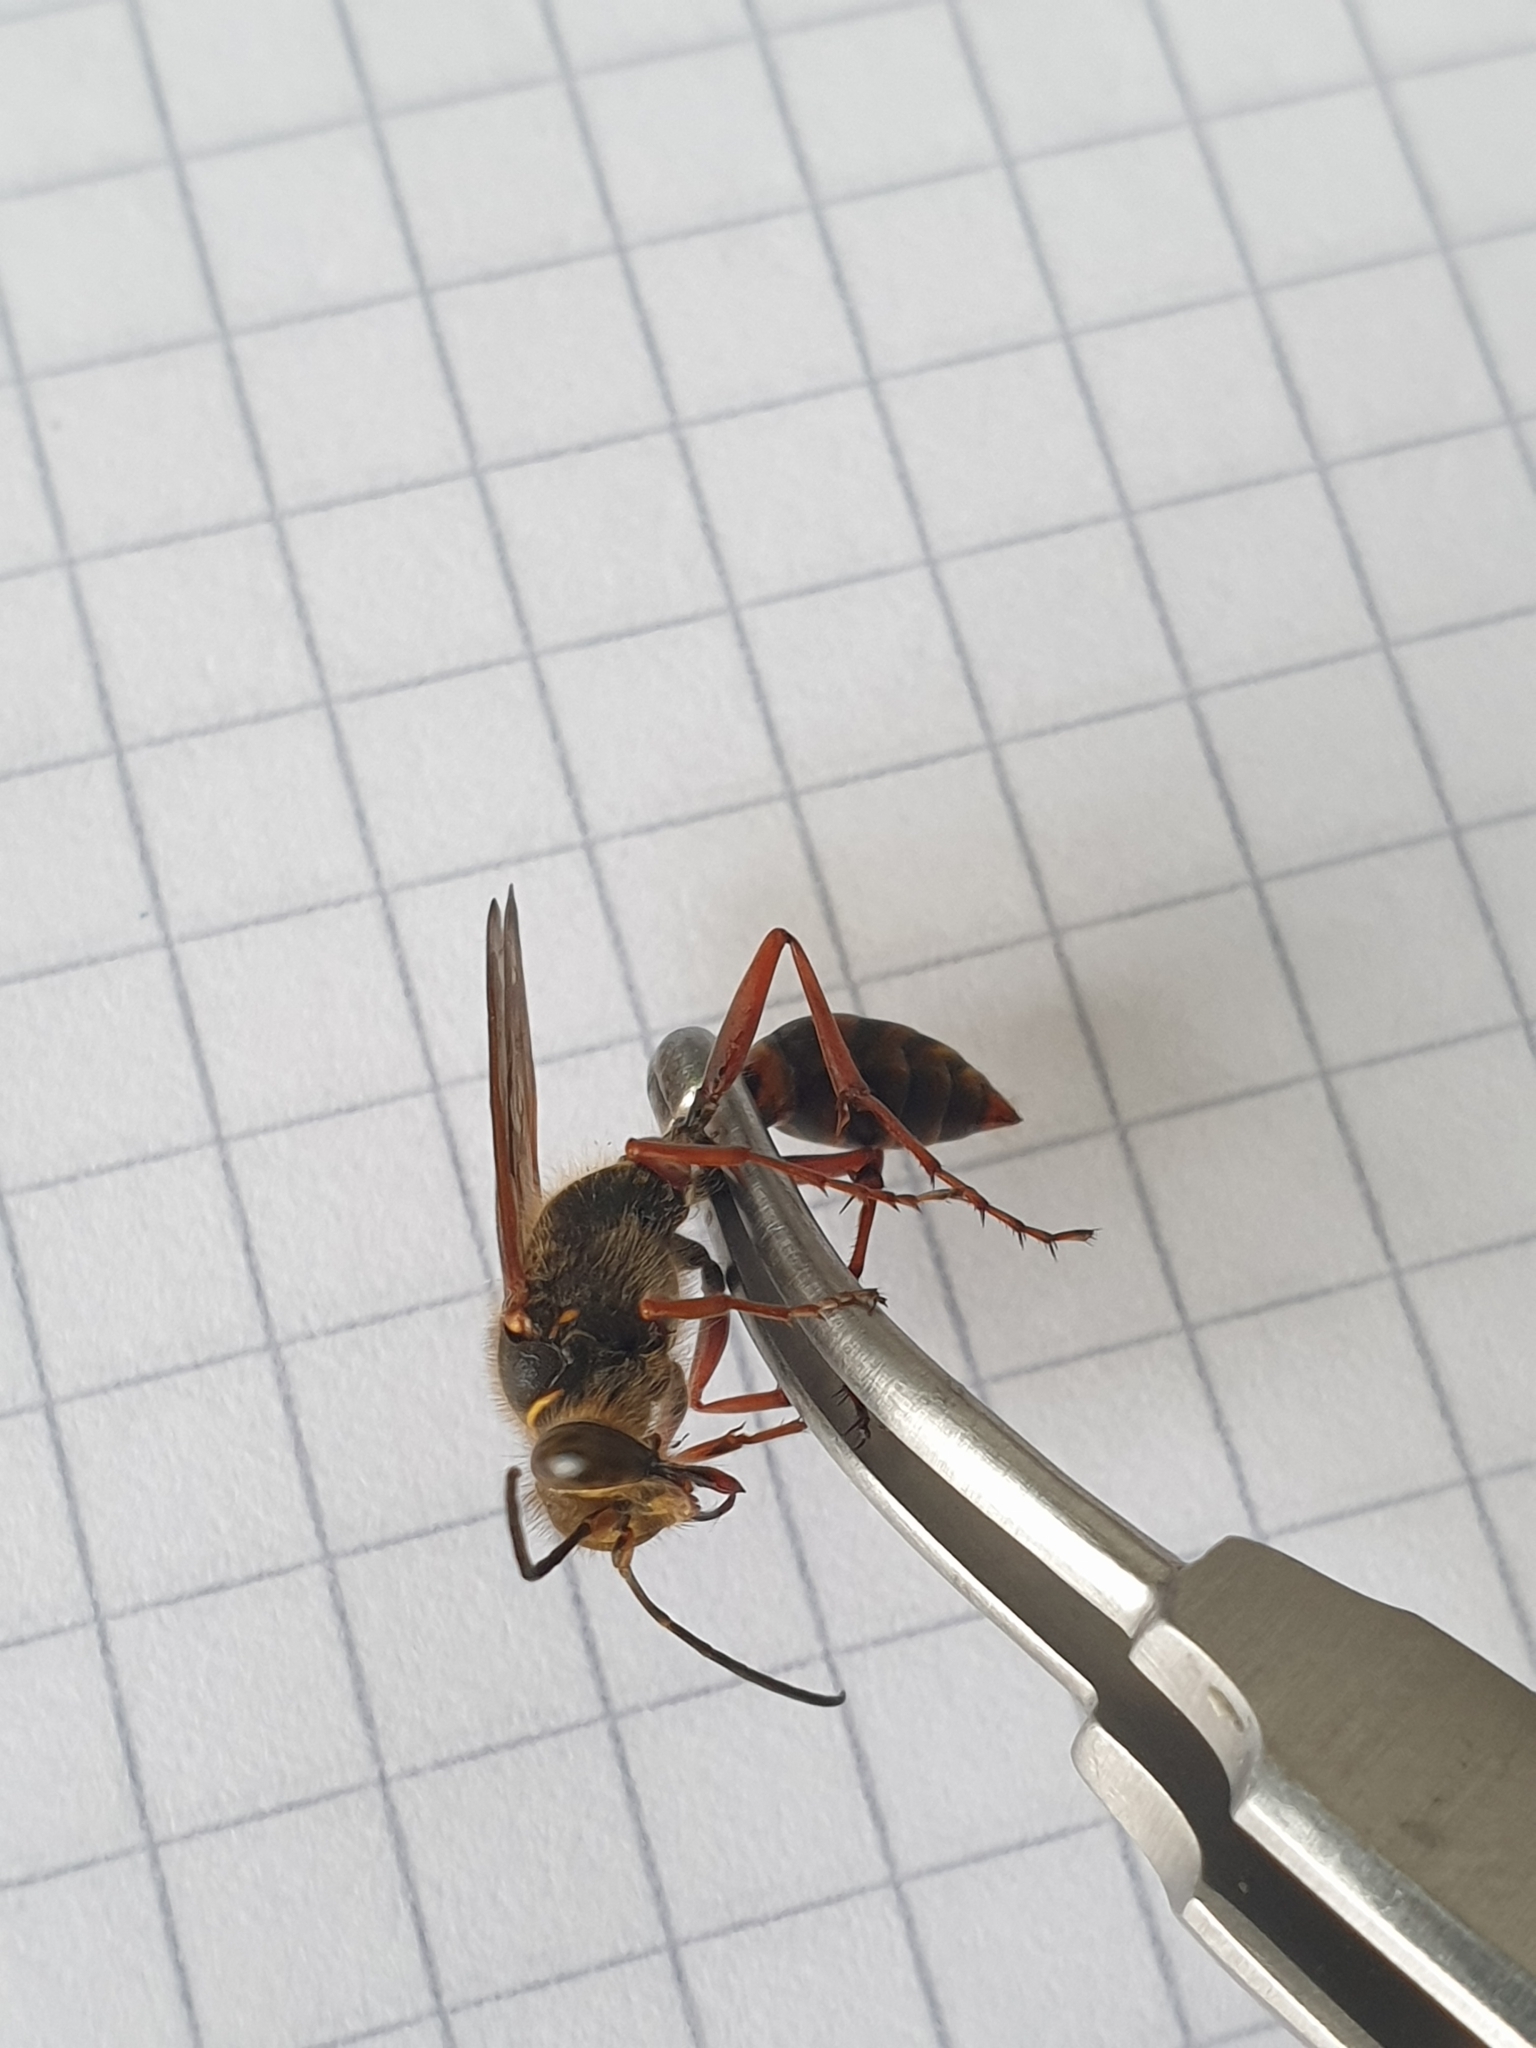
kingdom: Animalia
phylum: Arthropoda
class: Insecta
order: Hymenoptera
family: Sphecidae
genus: Sceliphron
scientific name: Sceliphron curvatum
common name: Pèlopèe
